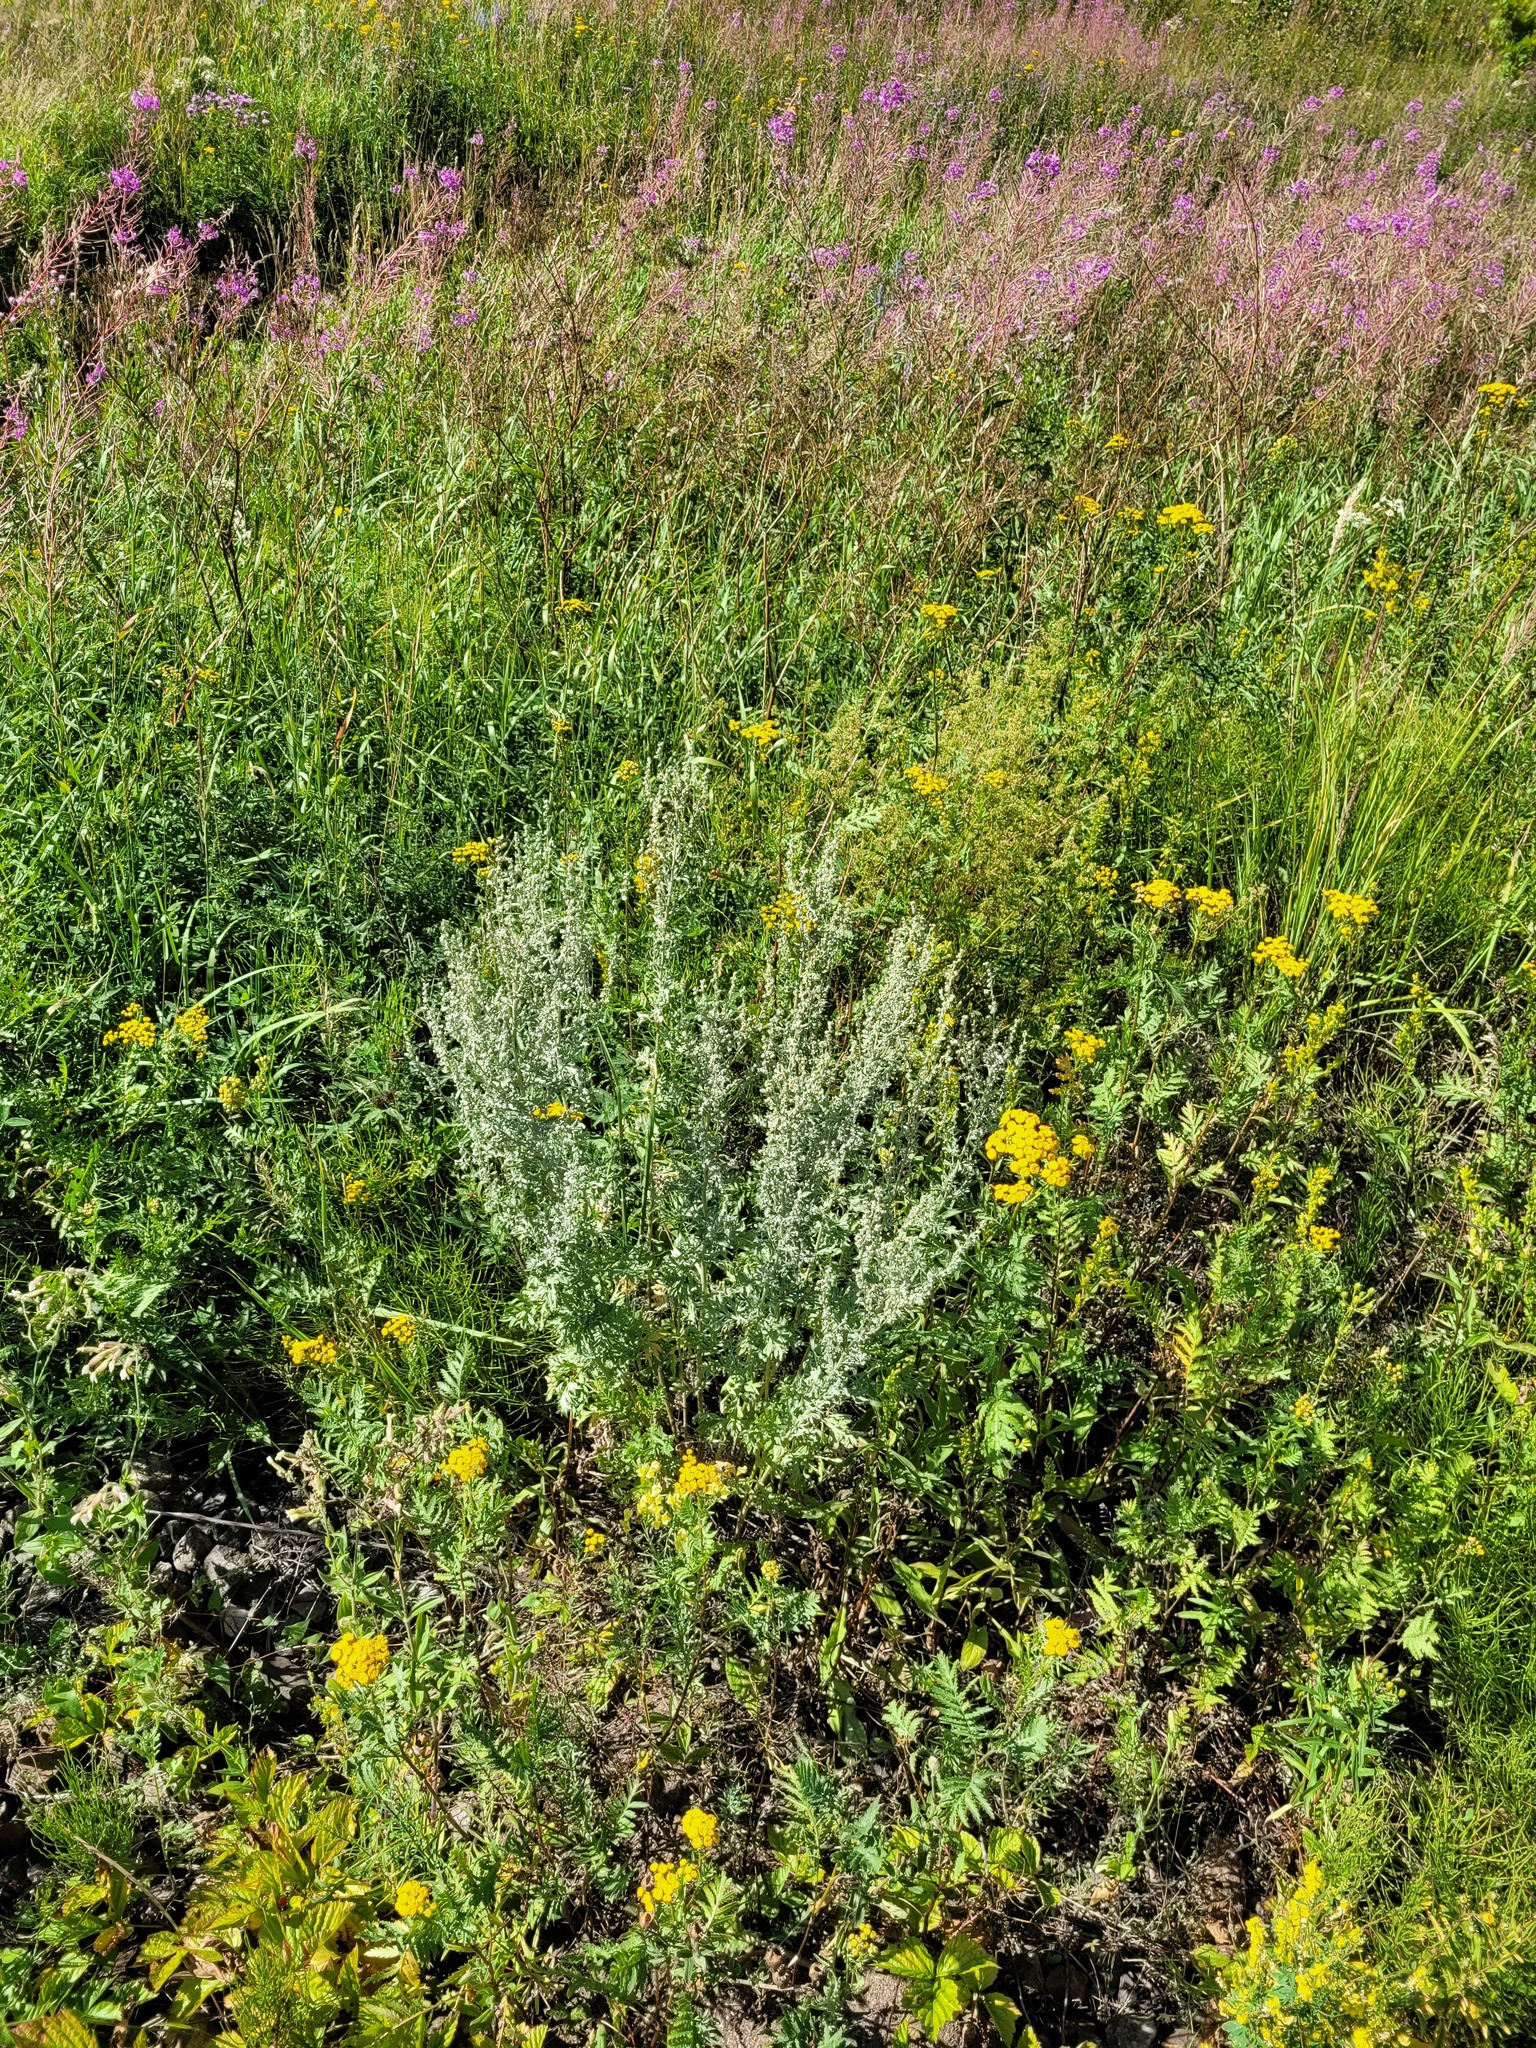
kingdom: Plantae
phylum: Tracheophyta
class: Magnoliopsida
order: Asterales
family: Asteraceae
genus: Artemisia
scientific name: Artemisia absinthium
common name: Wormwood
